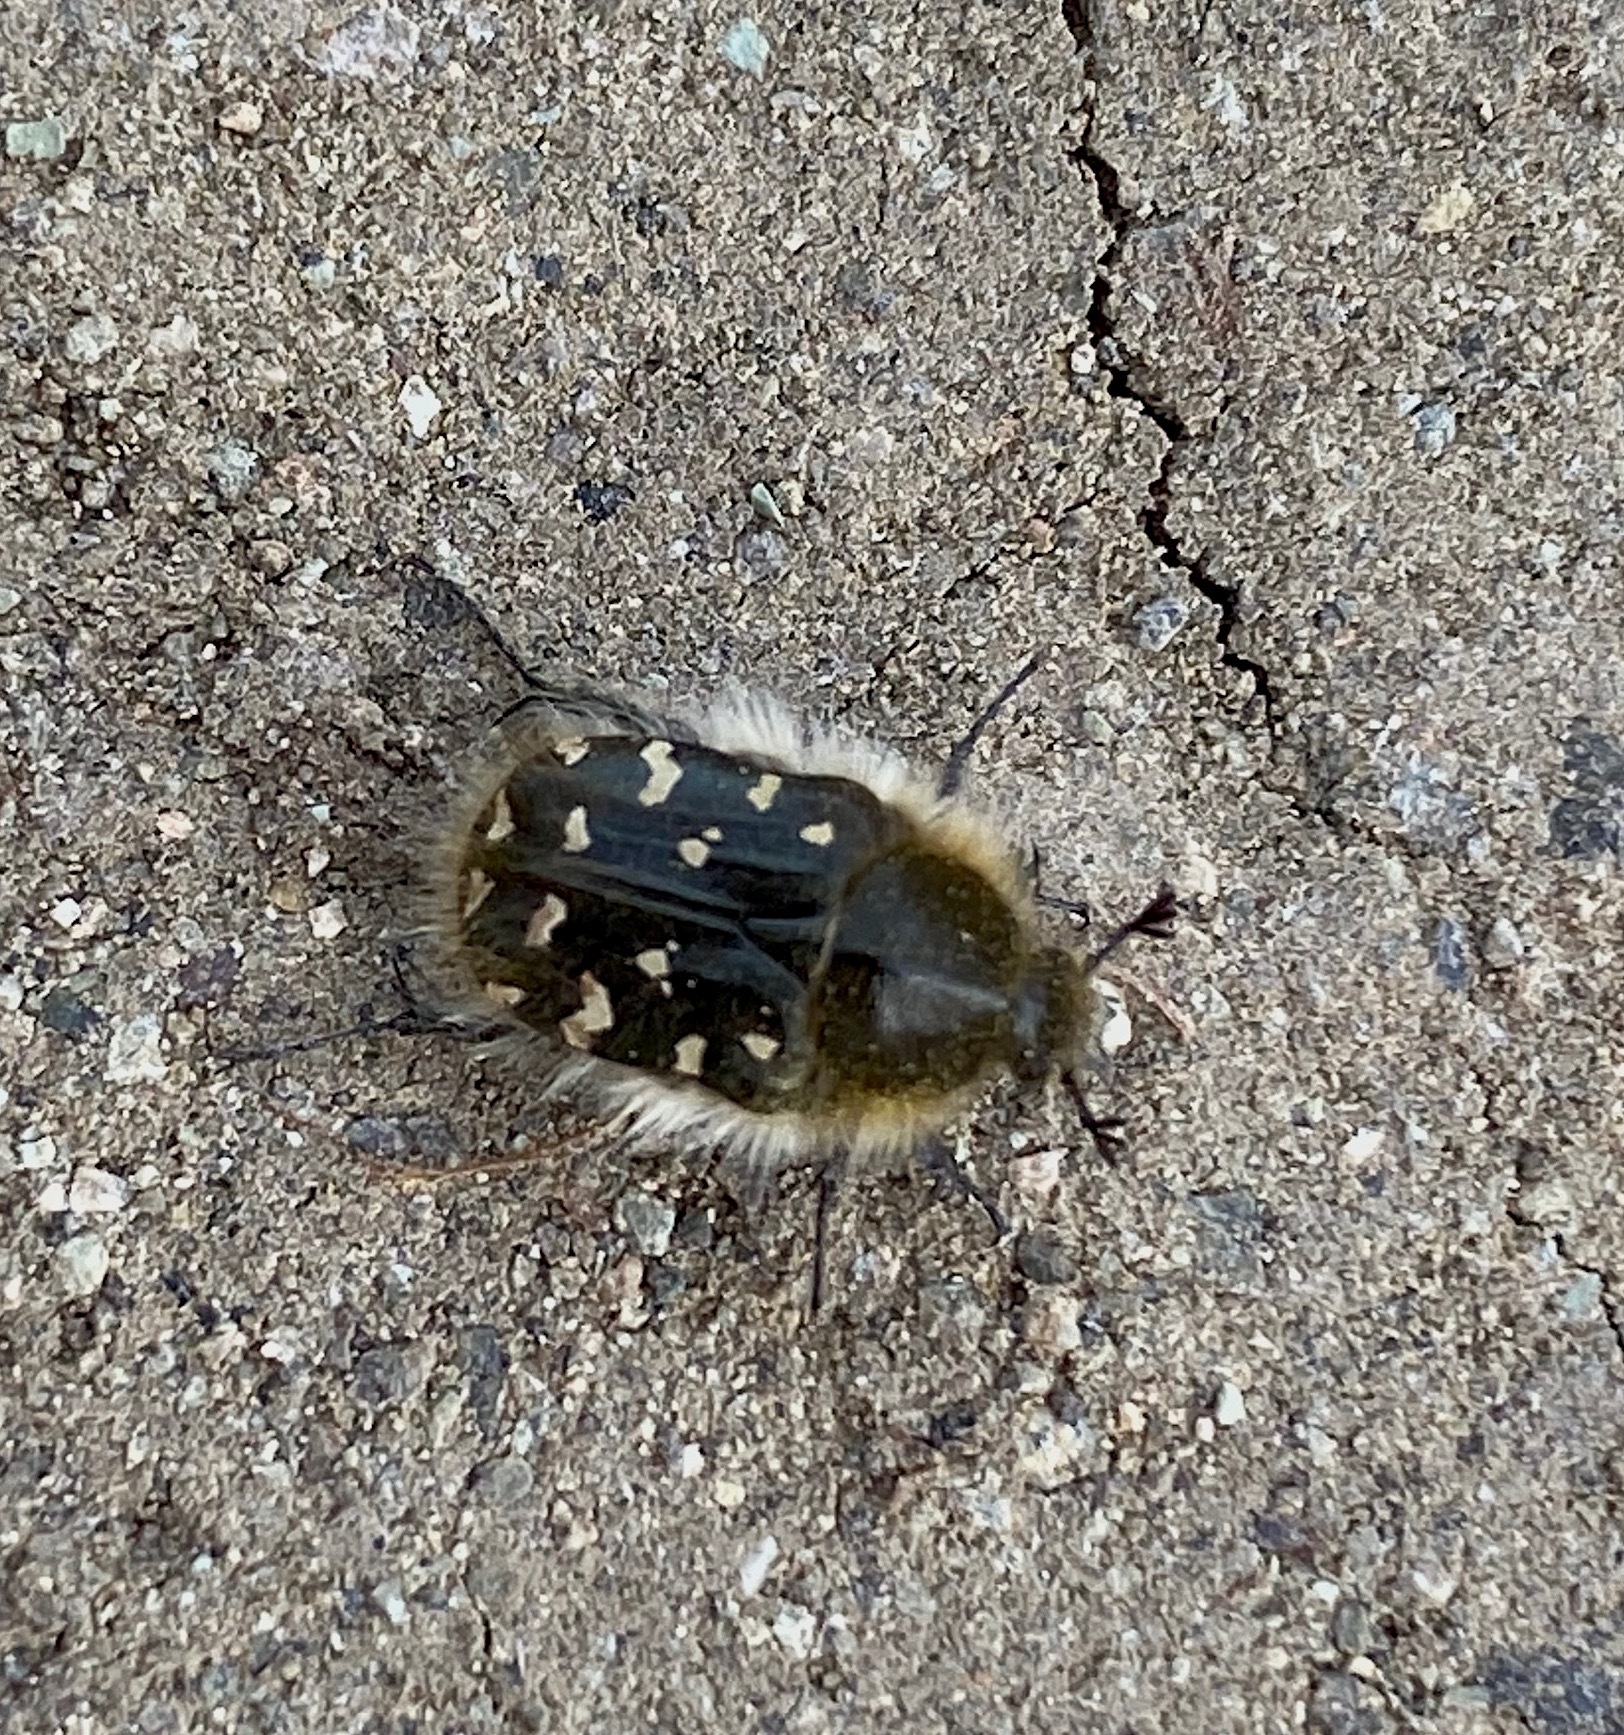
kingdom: Animalia
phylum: Arthropoda
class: Insecta
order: Coleoptera
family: Scarabaeidae
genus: Tropinota
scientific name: Tropinota hirta
